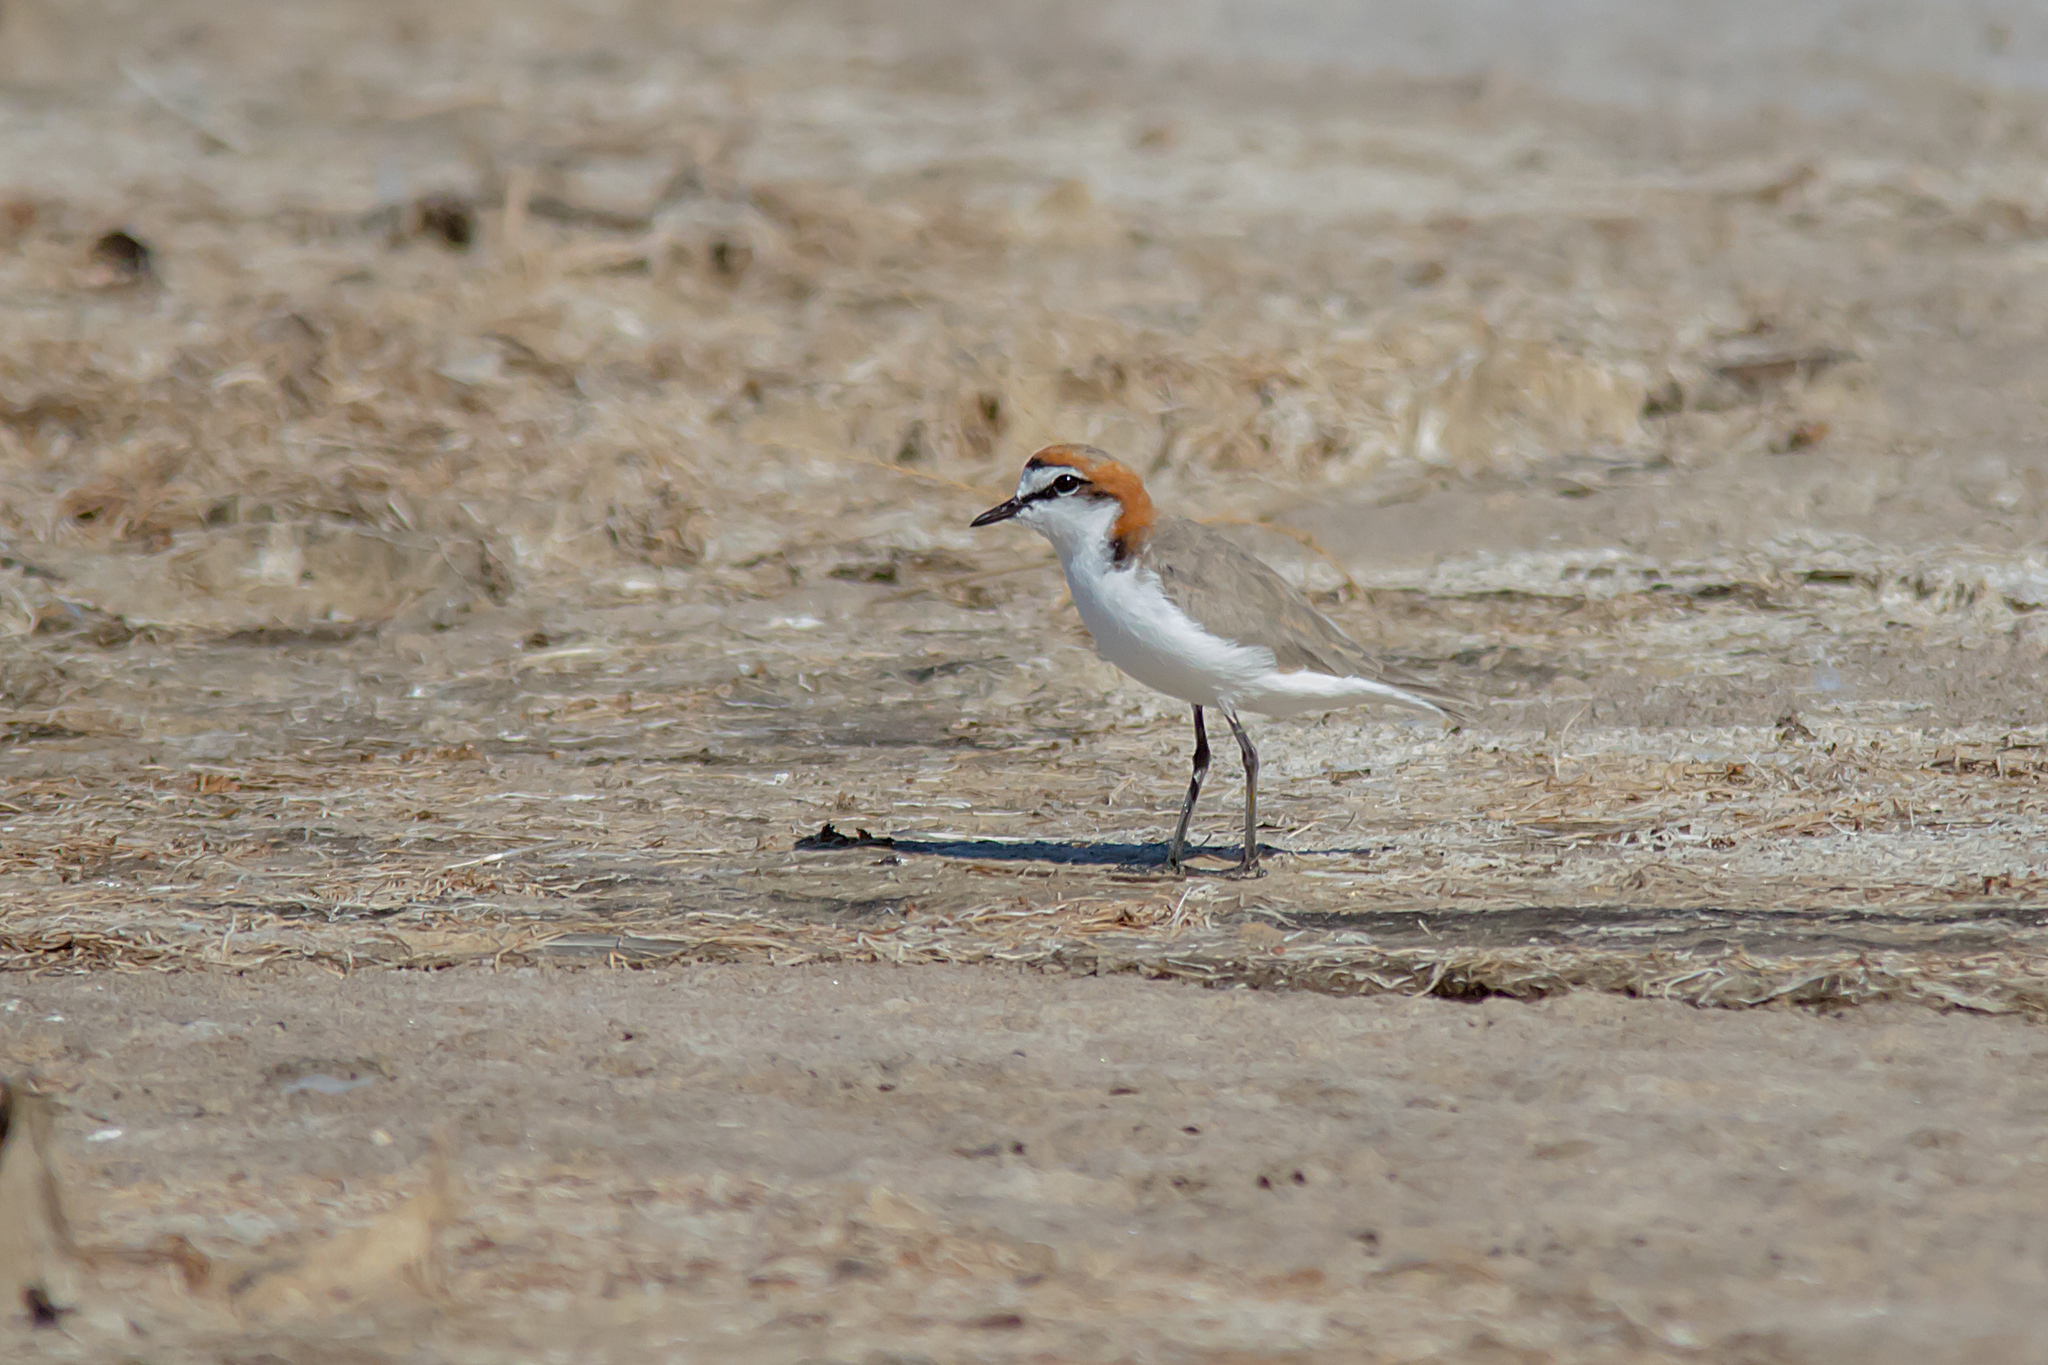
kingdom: Animalia
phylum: Chordata
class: Aves
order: Charadriiformes
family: Charadriidae
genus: Anarhynchus
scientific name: Anarhynchus
